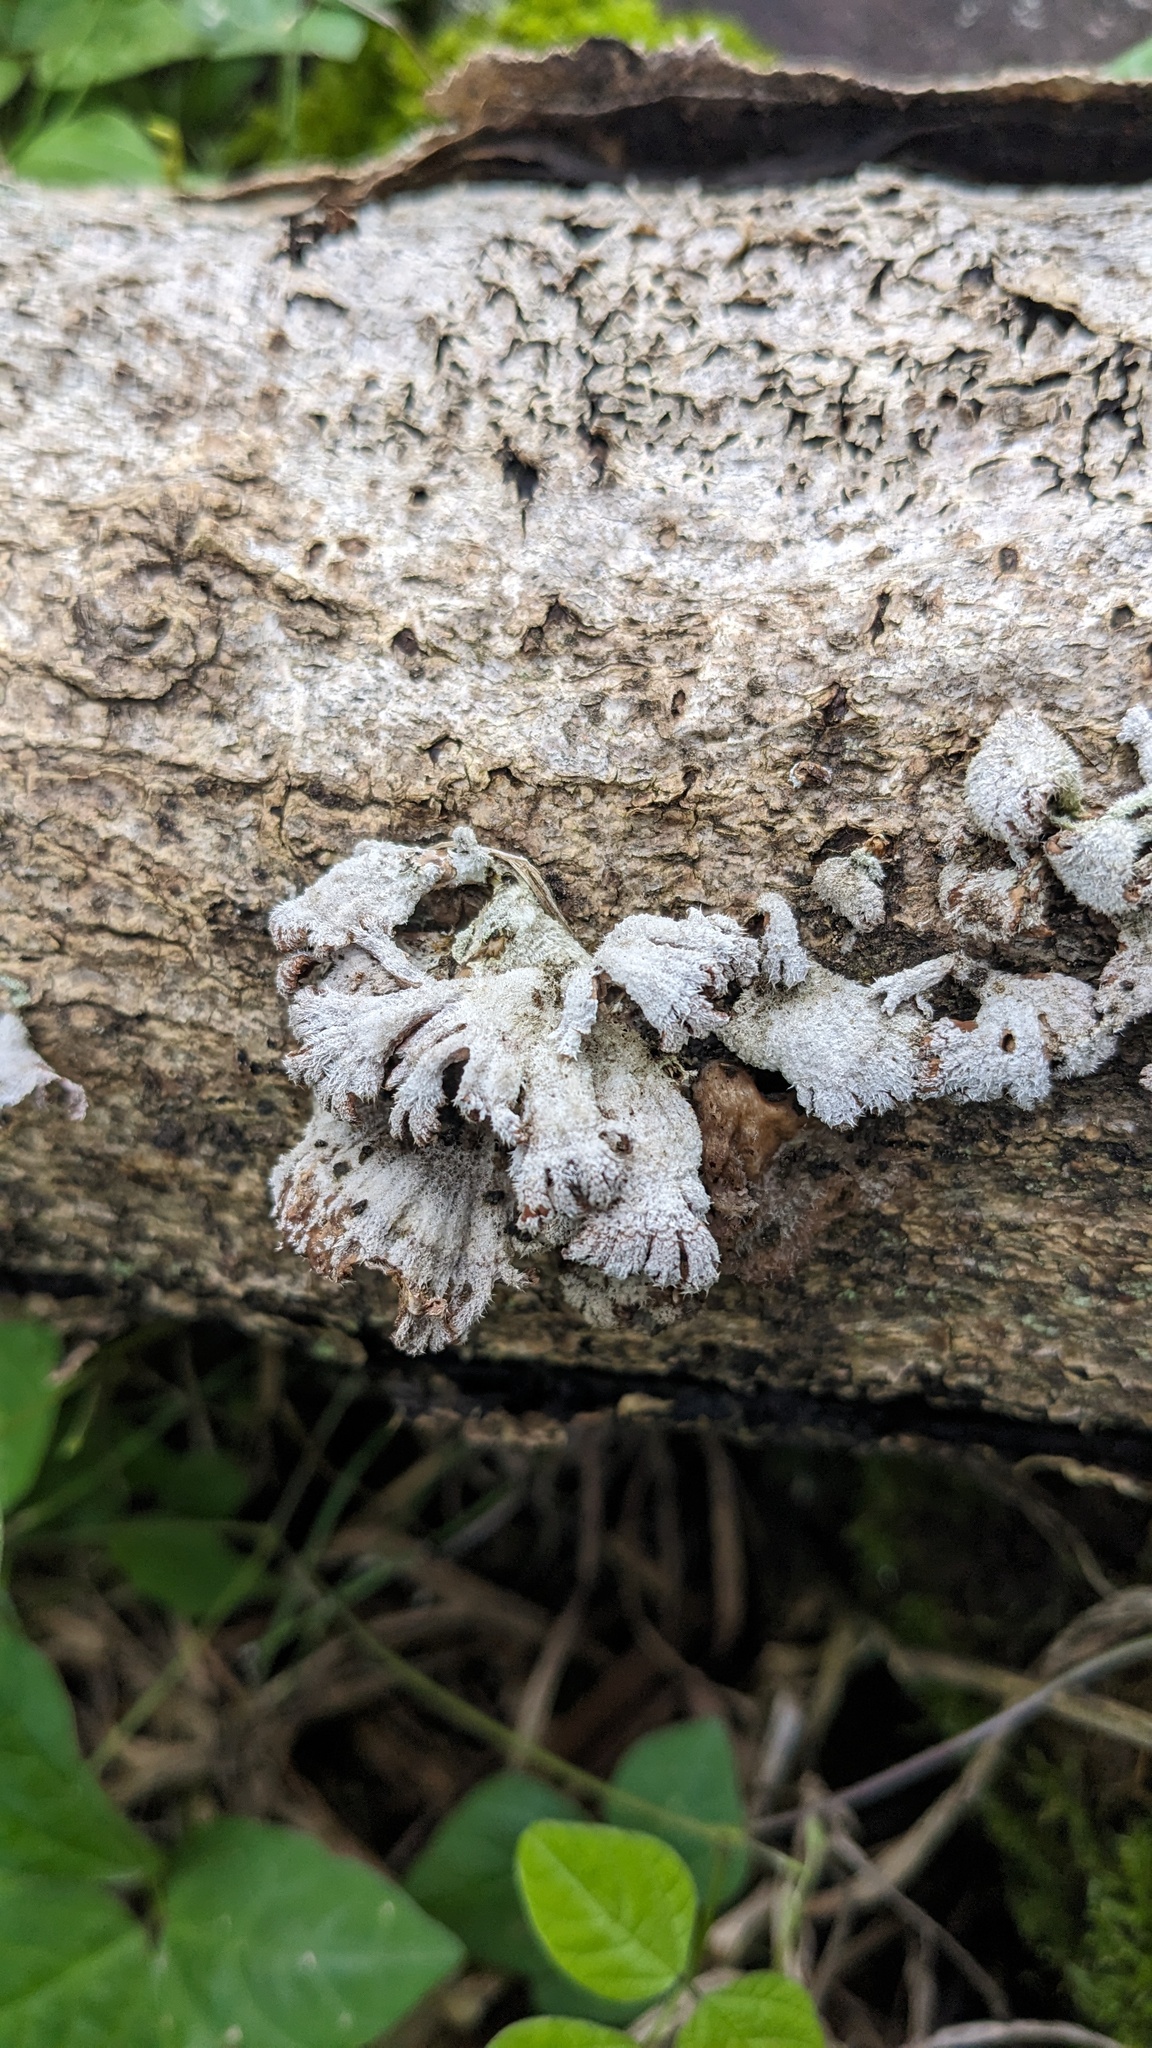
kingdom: Fungi
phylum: Basidiomycota
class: Agaricomycetes
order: Agaricales
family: Schizophyllaceae
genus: Schizophyllum
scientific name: Schizophyllum commune
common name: Common porecrust
